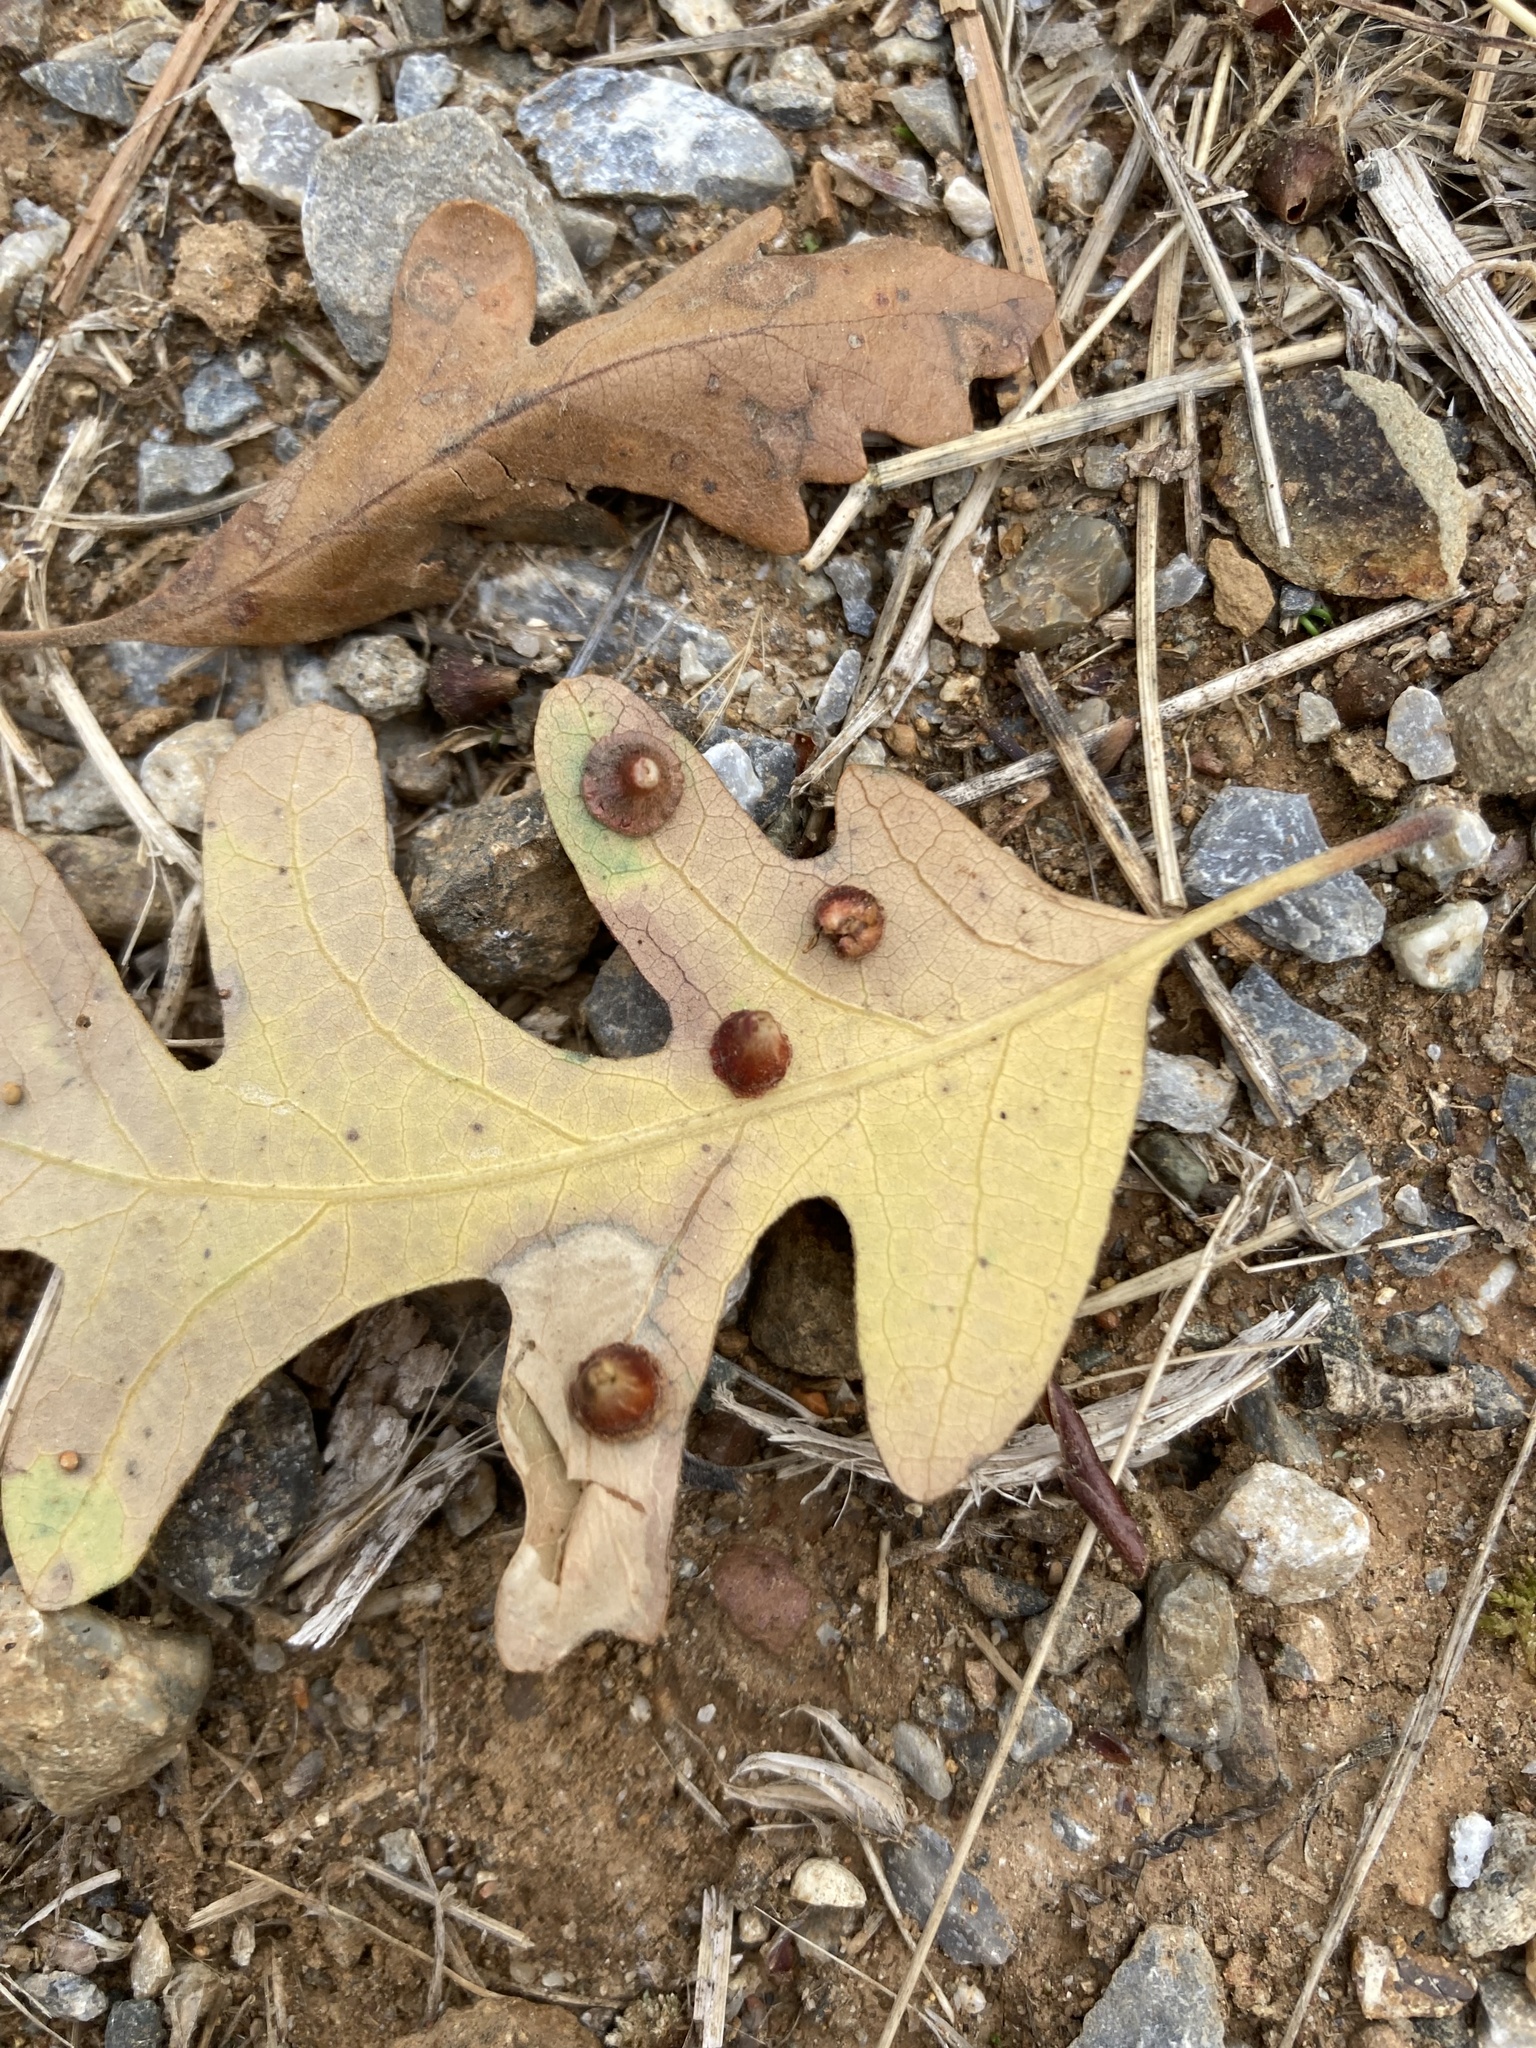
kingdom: Animalia
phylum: Arthropoda
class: Insecta
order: Hymenoptera
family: Cynipidae
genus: Andricus
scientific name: Andricus
